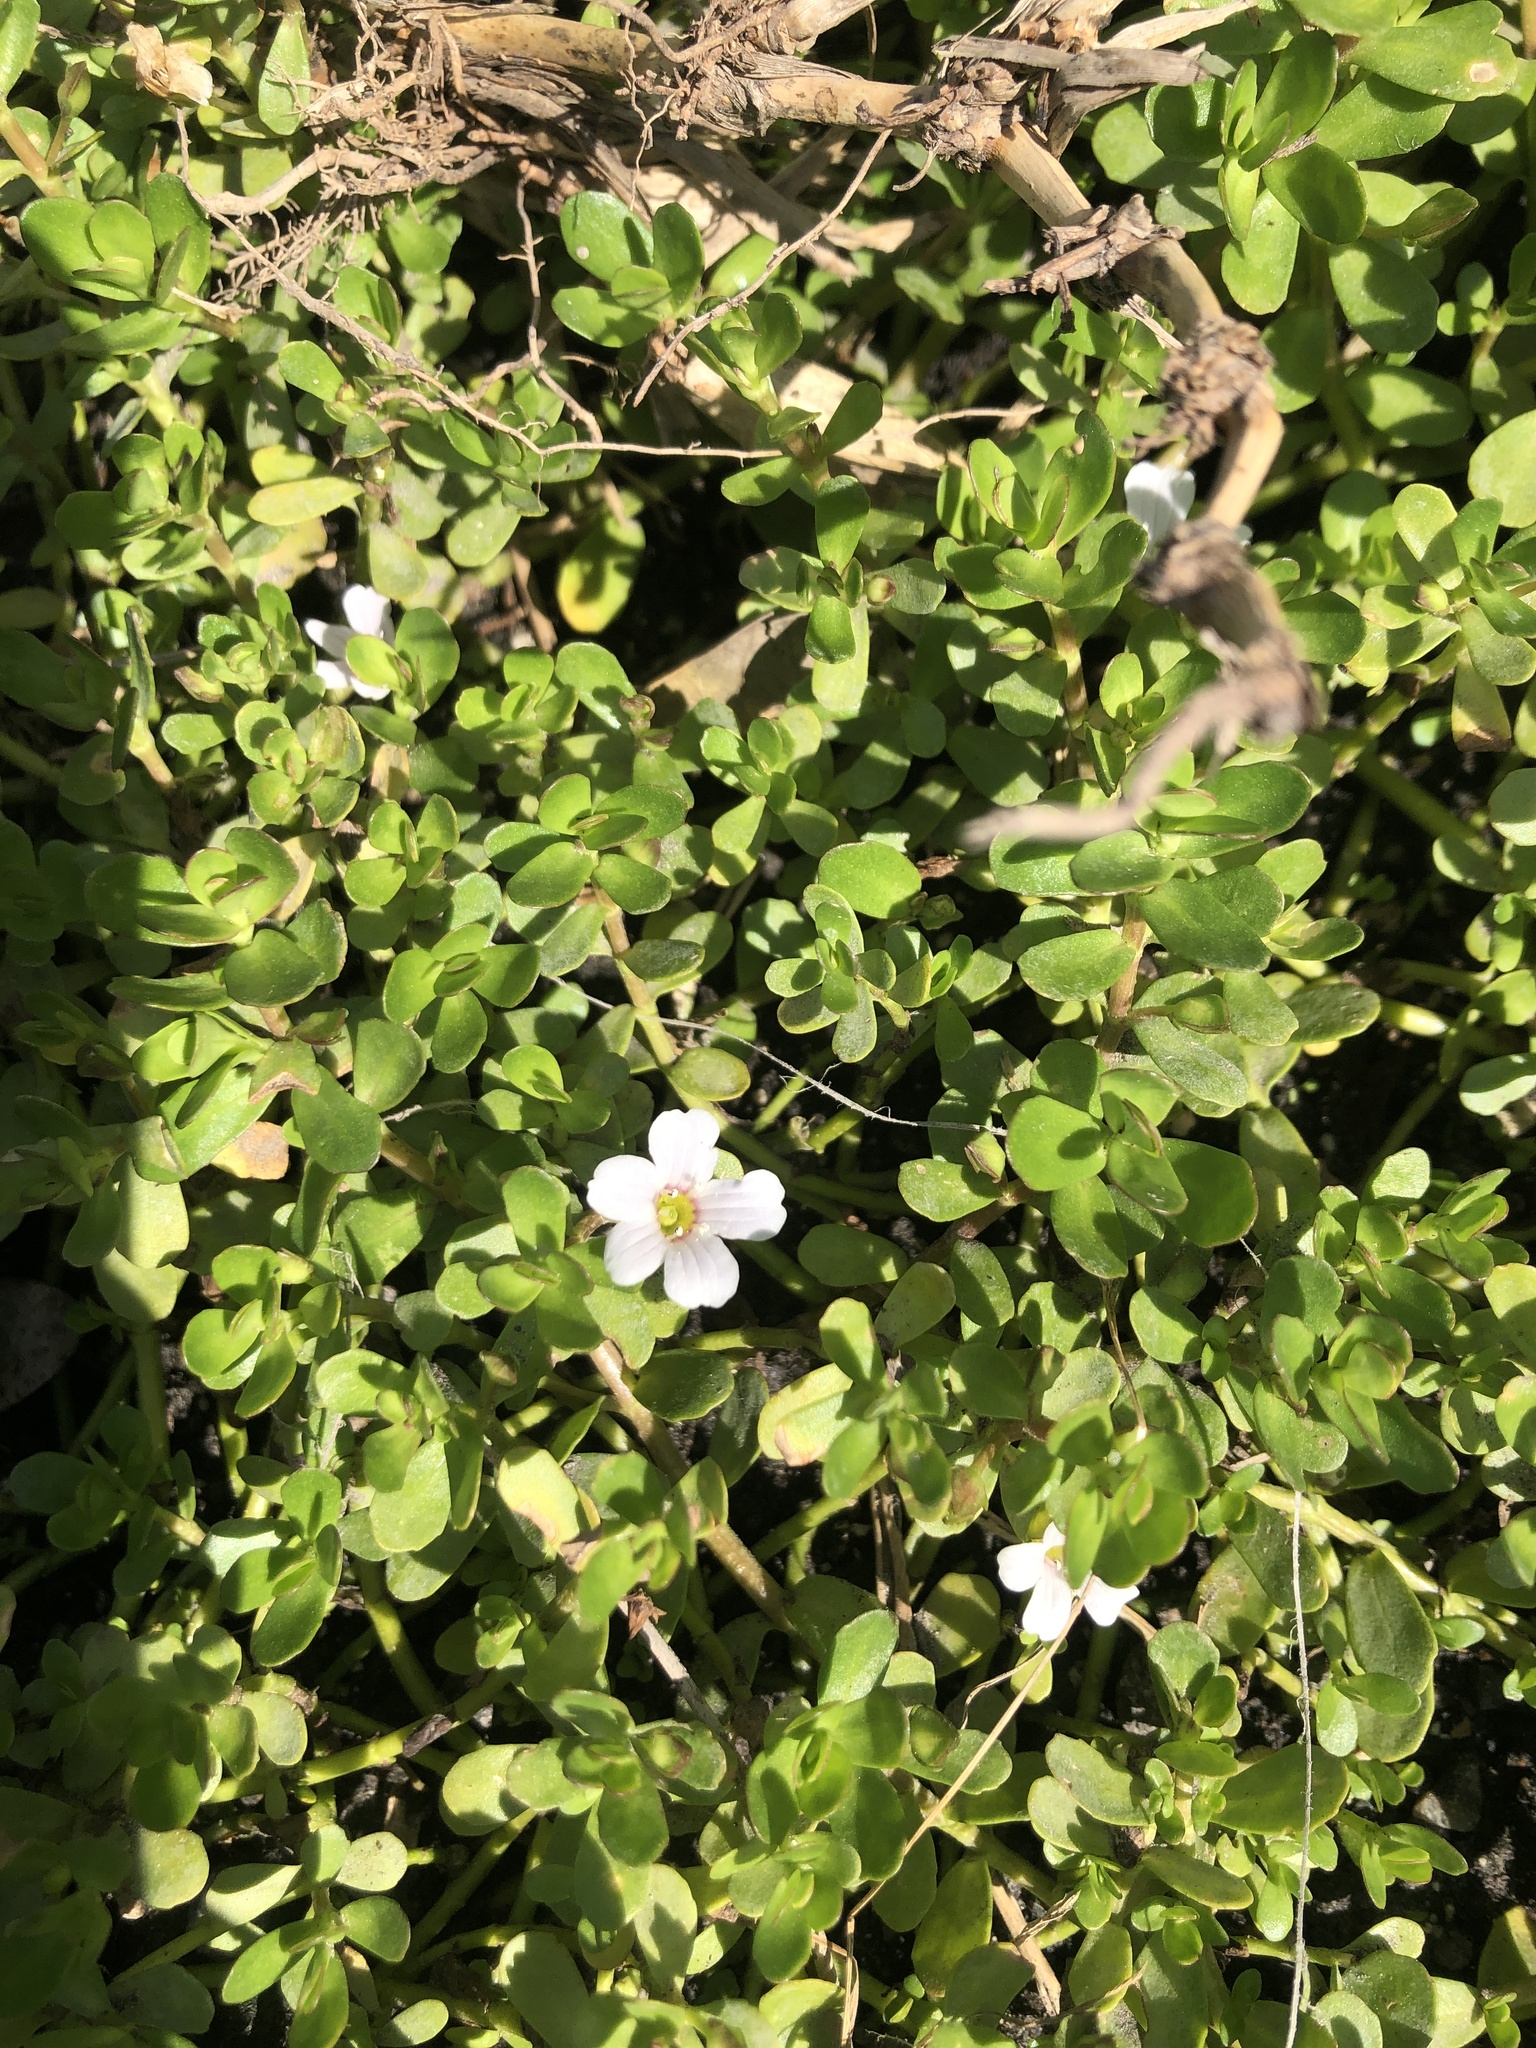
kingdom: Plantae
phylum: Tracheophyta
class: Magnoliopsida
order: Lamiales
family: Plantaginaceae
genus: Bacopa
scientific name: Bacopa monnieri
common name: Indian-pennywort
